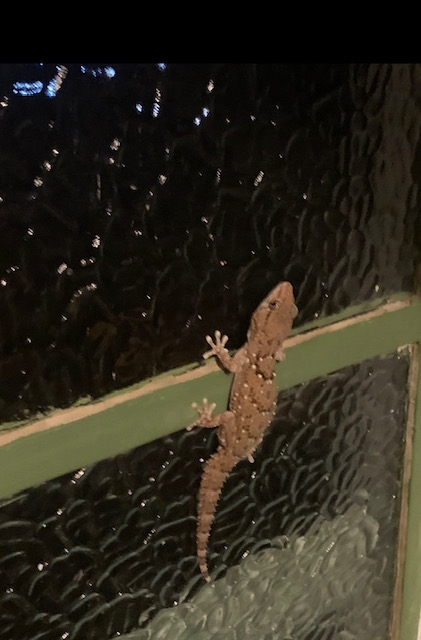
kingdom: Animalia
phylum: Chordata
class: Squamata
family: Gekkonidae
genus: Chondrodactylus
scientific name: Chondrodactylus laevigatus
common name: Fischer's thick-toed gecko
